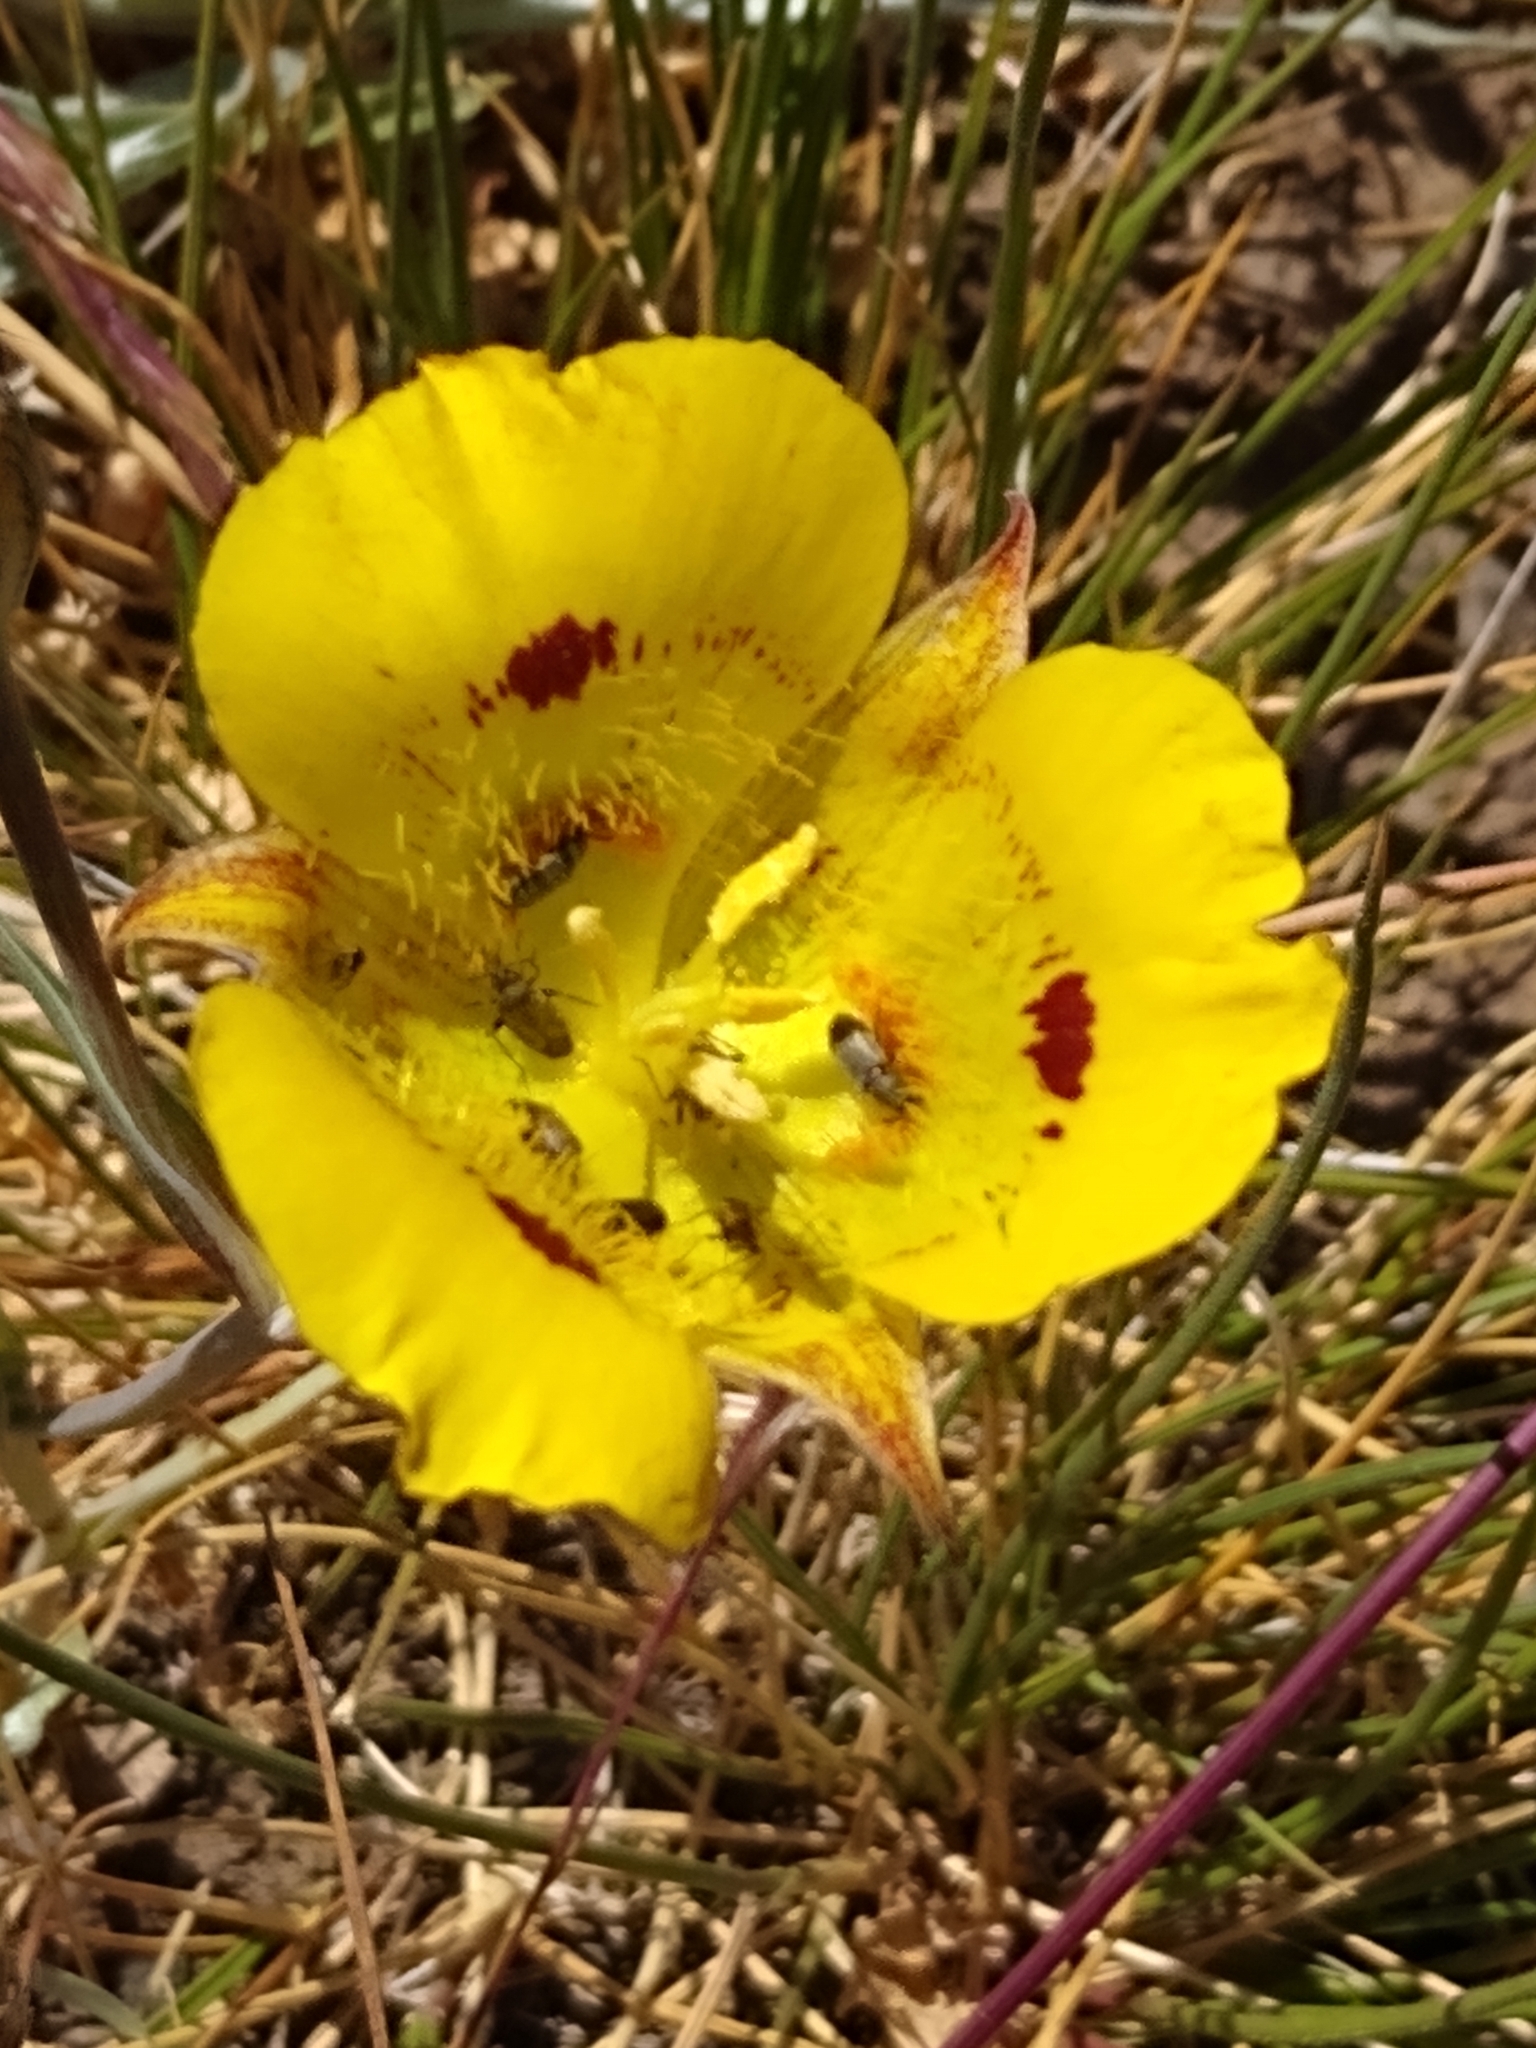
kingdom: Plantae
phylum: Tracheophyta
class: Liliopsida
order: Liliales
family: Liliaceae
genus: Calochortus
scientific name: Calochortus luteus
